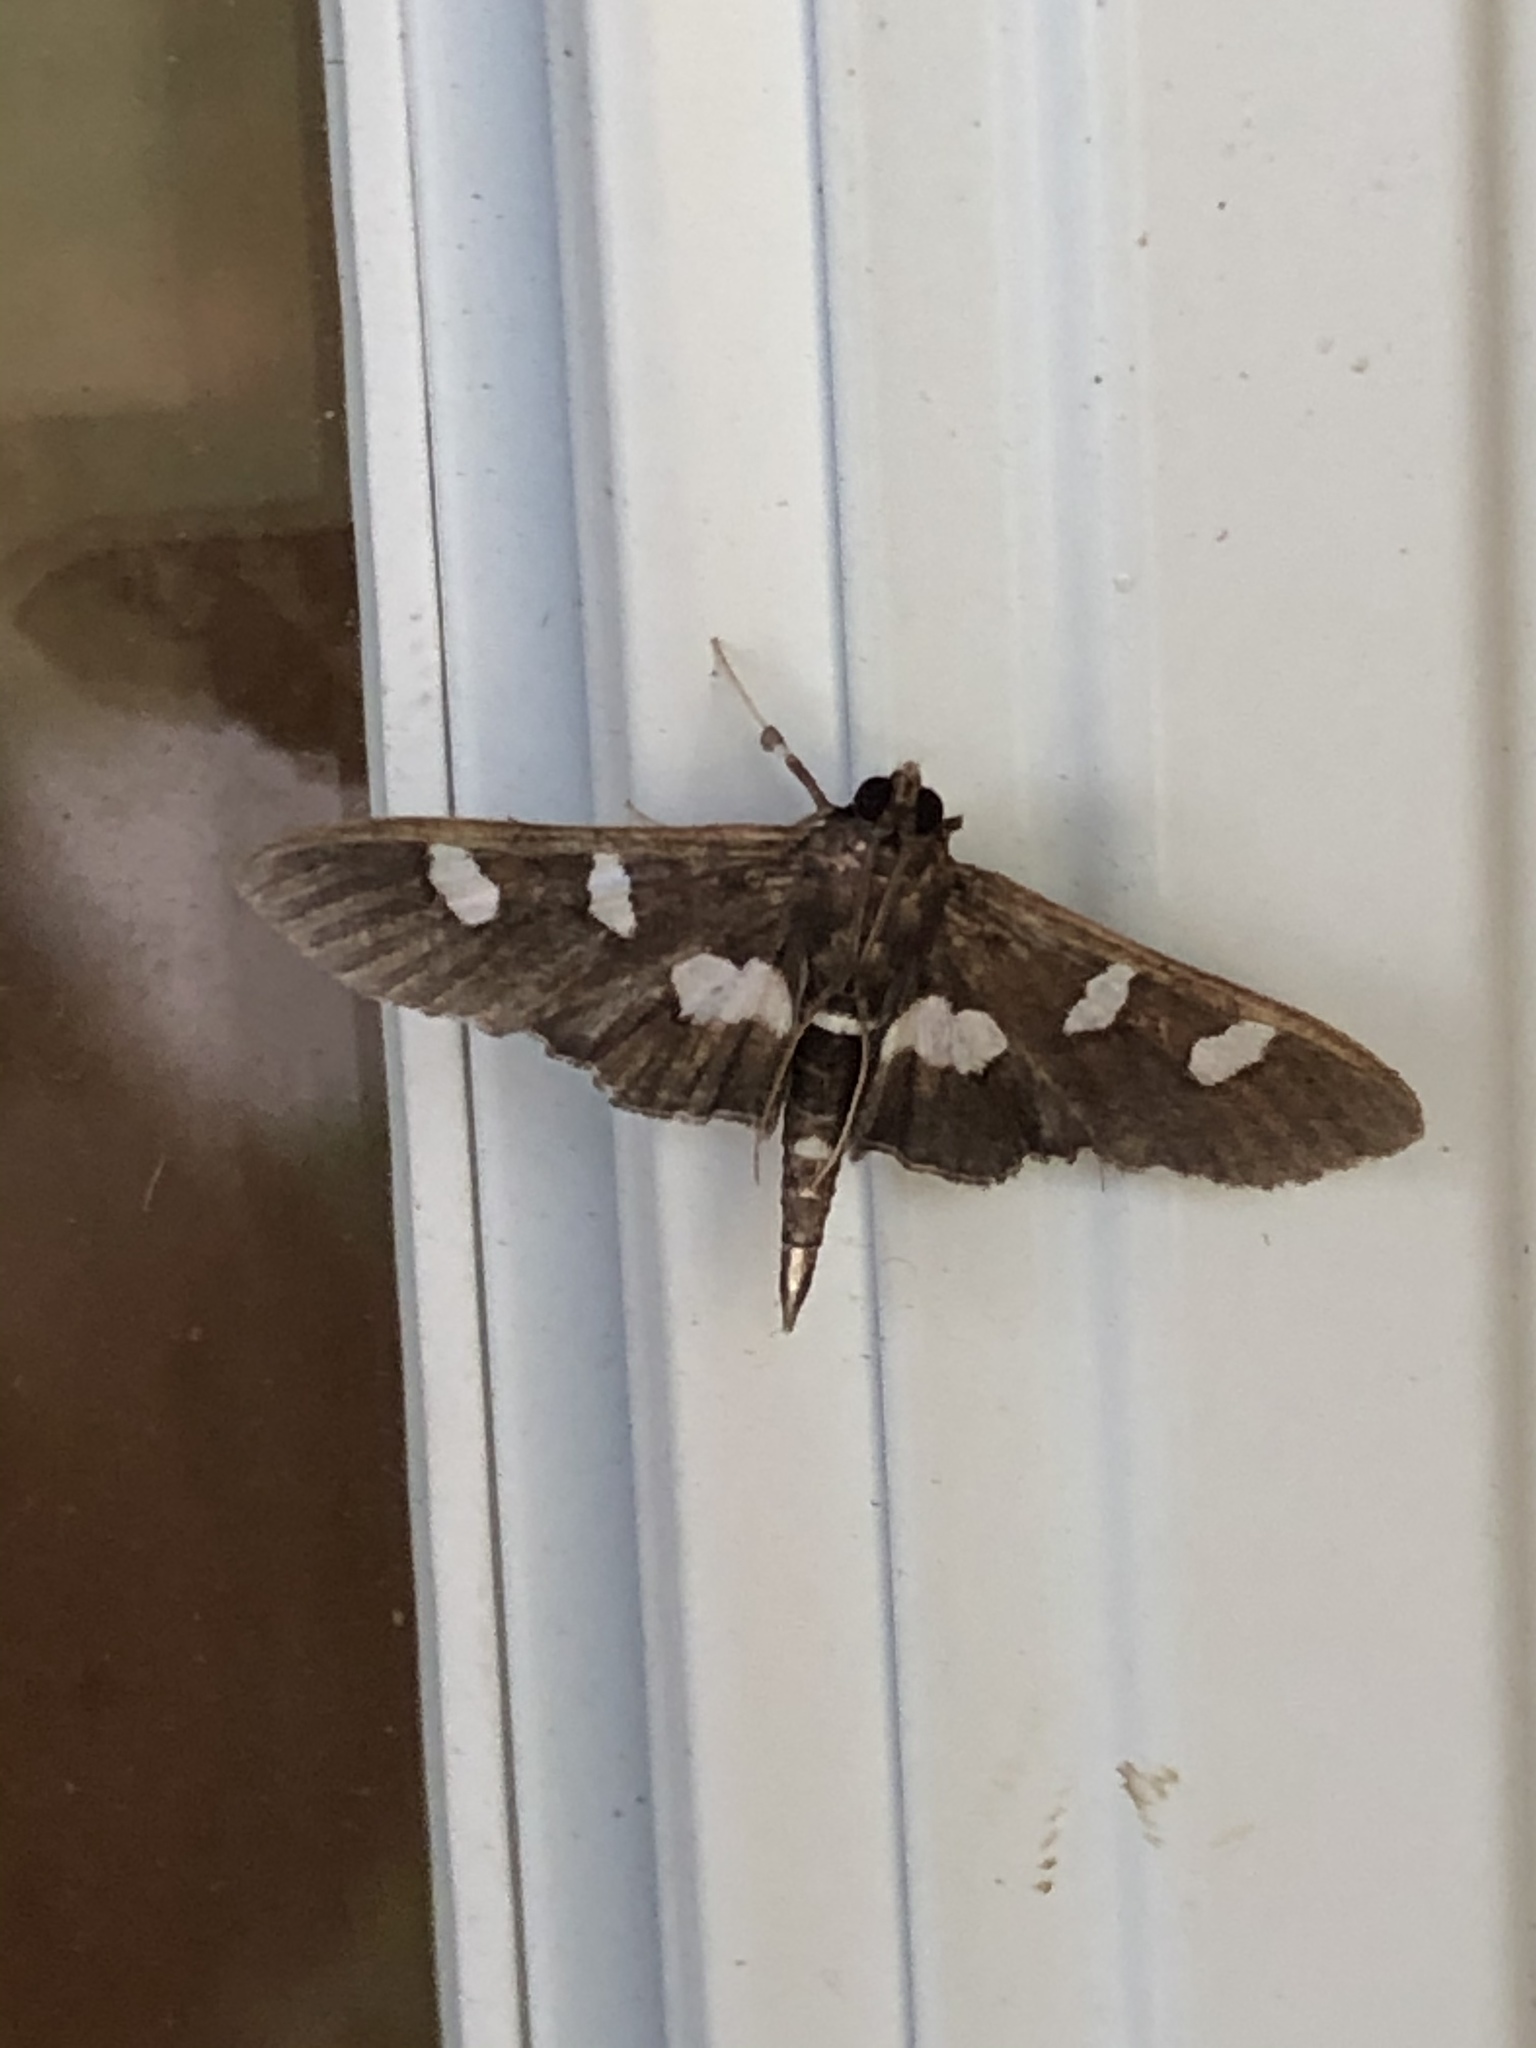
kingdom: Animalia
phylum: Arthropoda
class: Insecta
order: Lepidoptera
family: Crambidae
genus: Desmia
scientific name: Desmia
